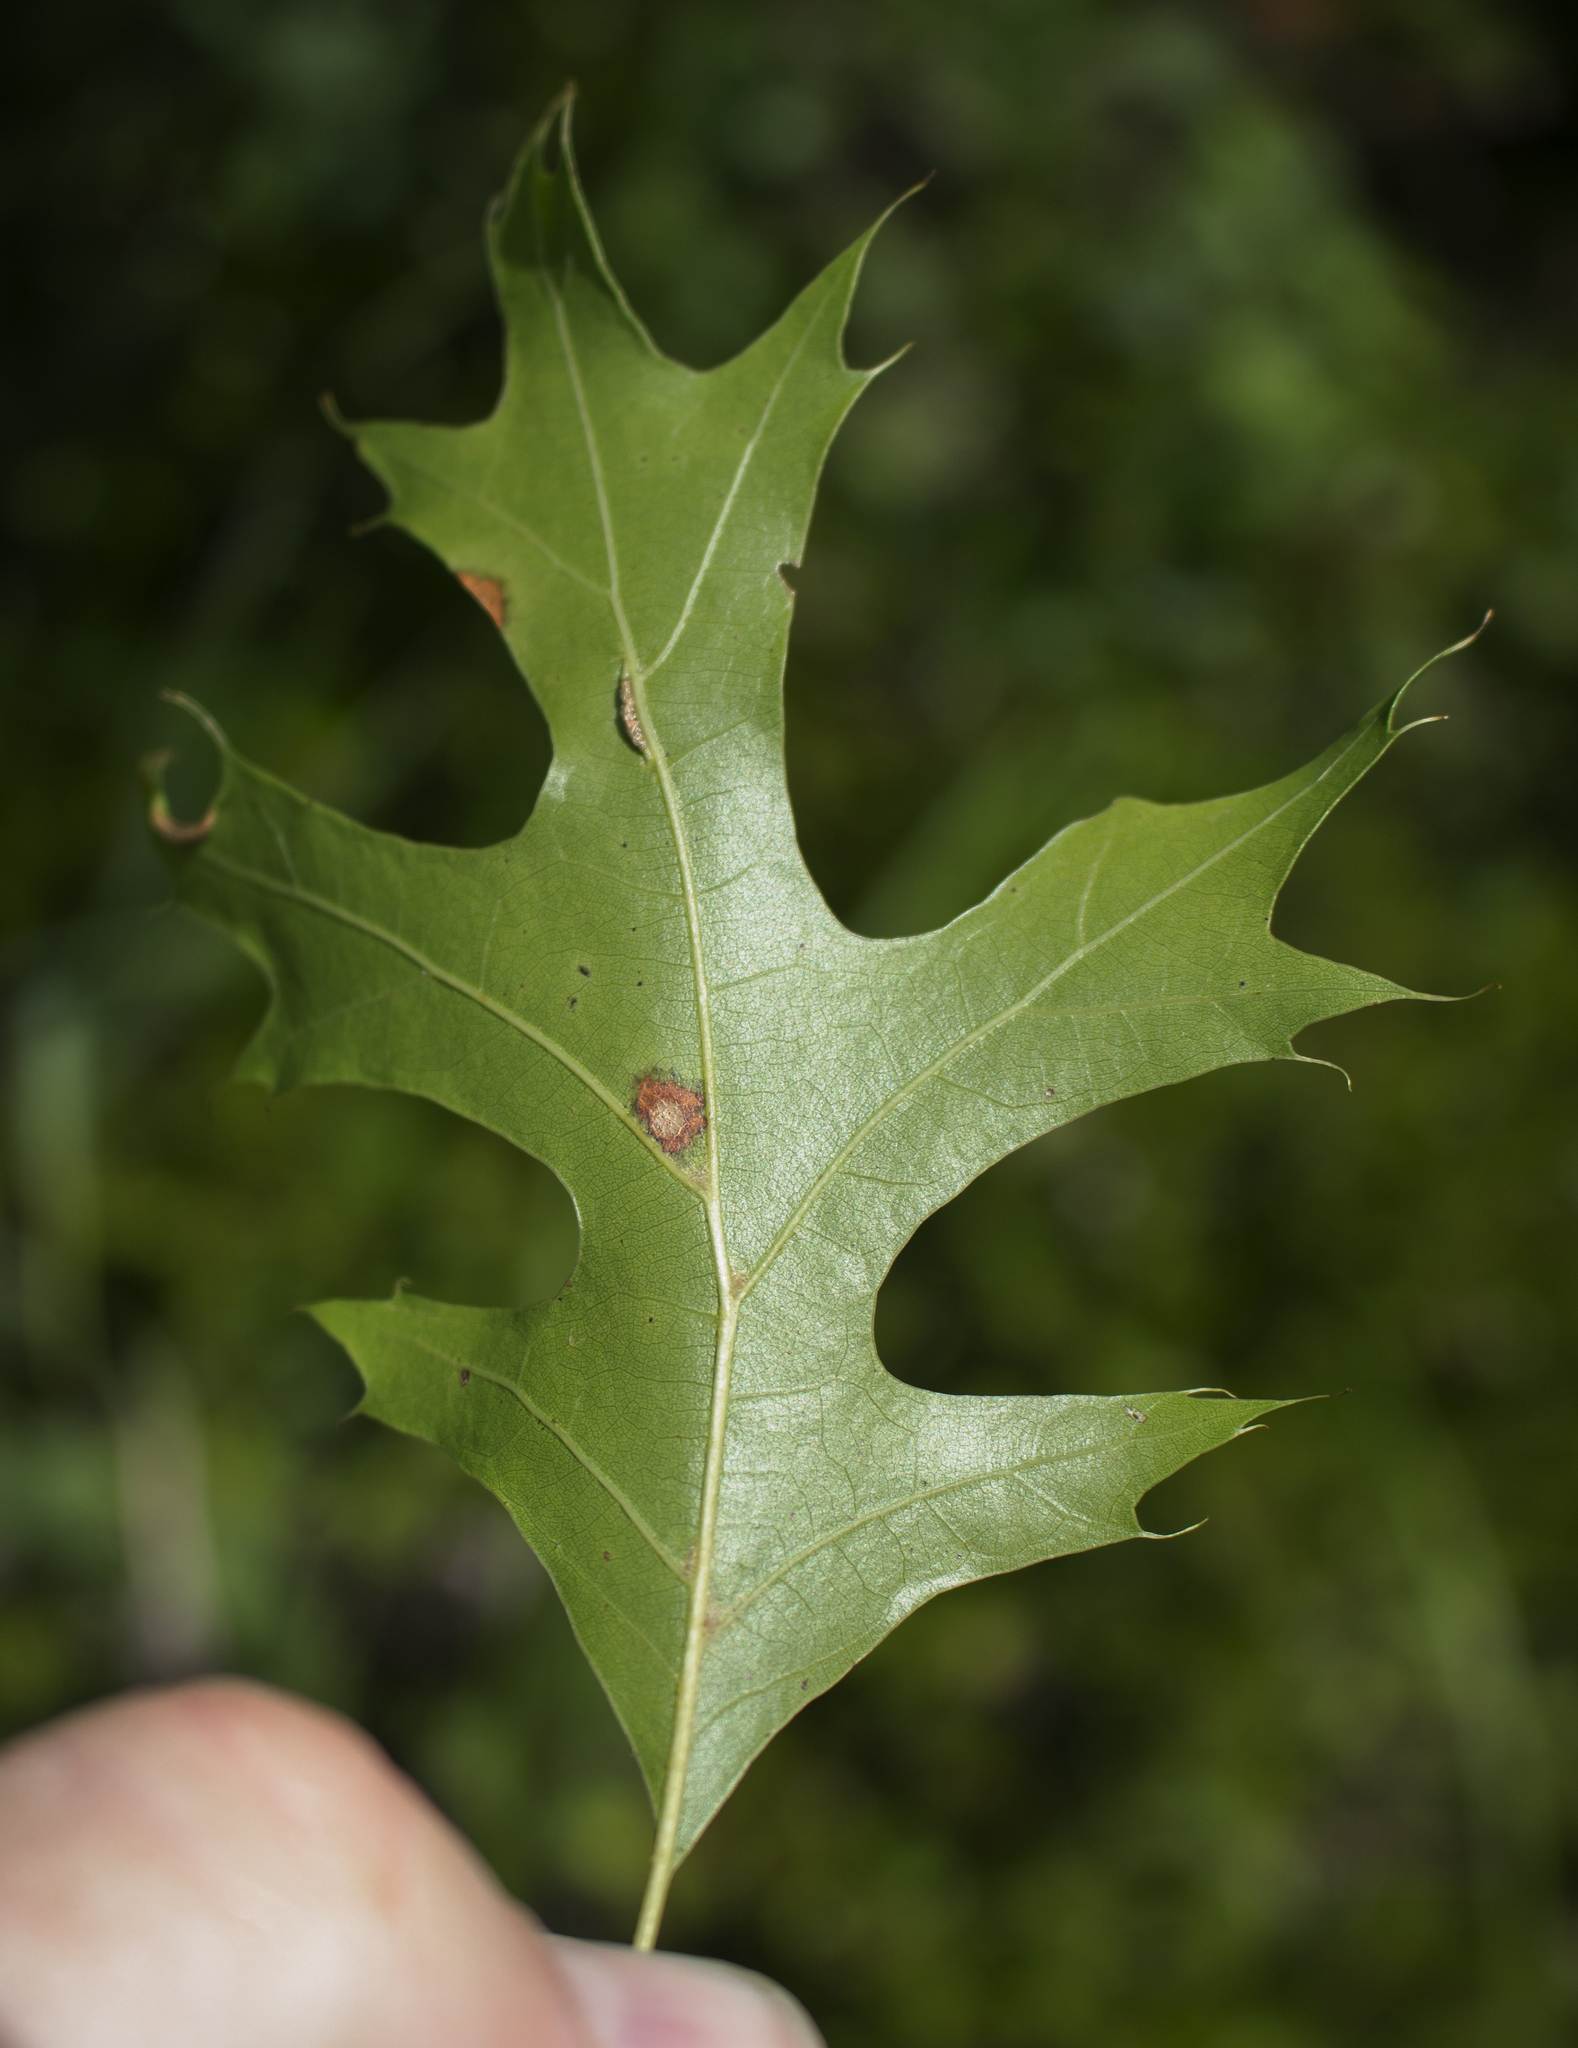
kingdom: Plantae
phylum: Tracheophyta
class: Magnoliopsida
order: Fagales
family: Fagaceae
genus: Quercus
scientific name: Quercus ellipsoidalis
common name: Hill's oak
